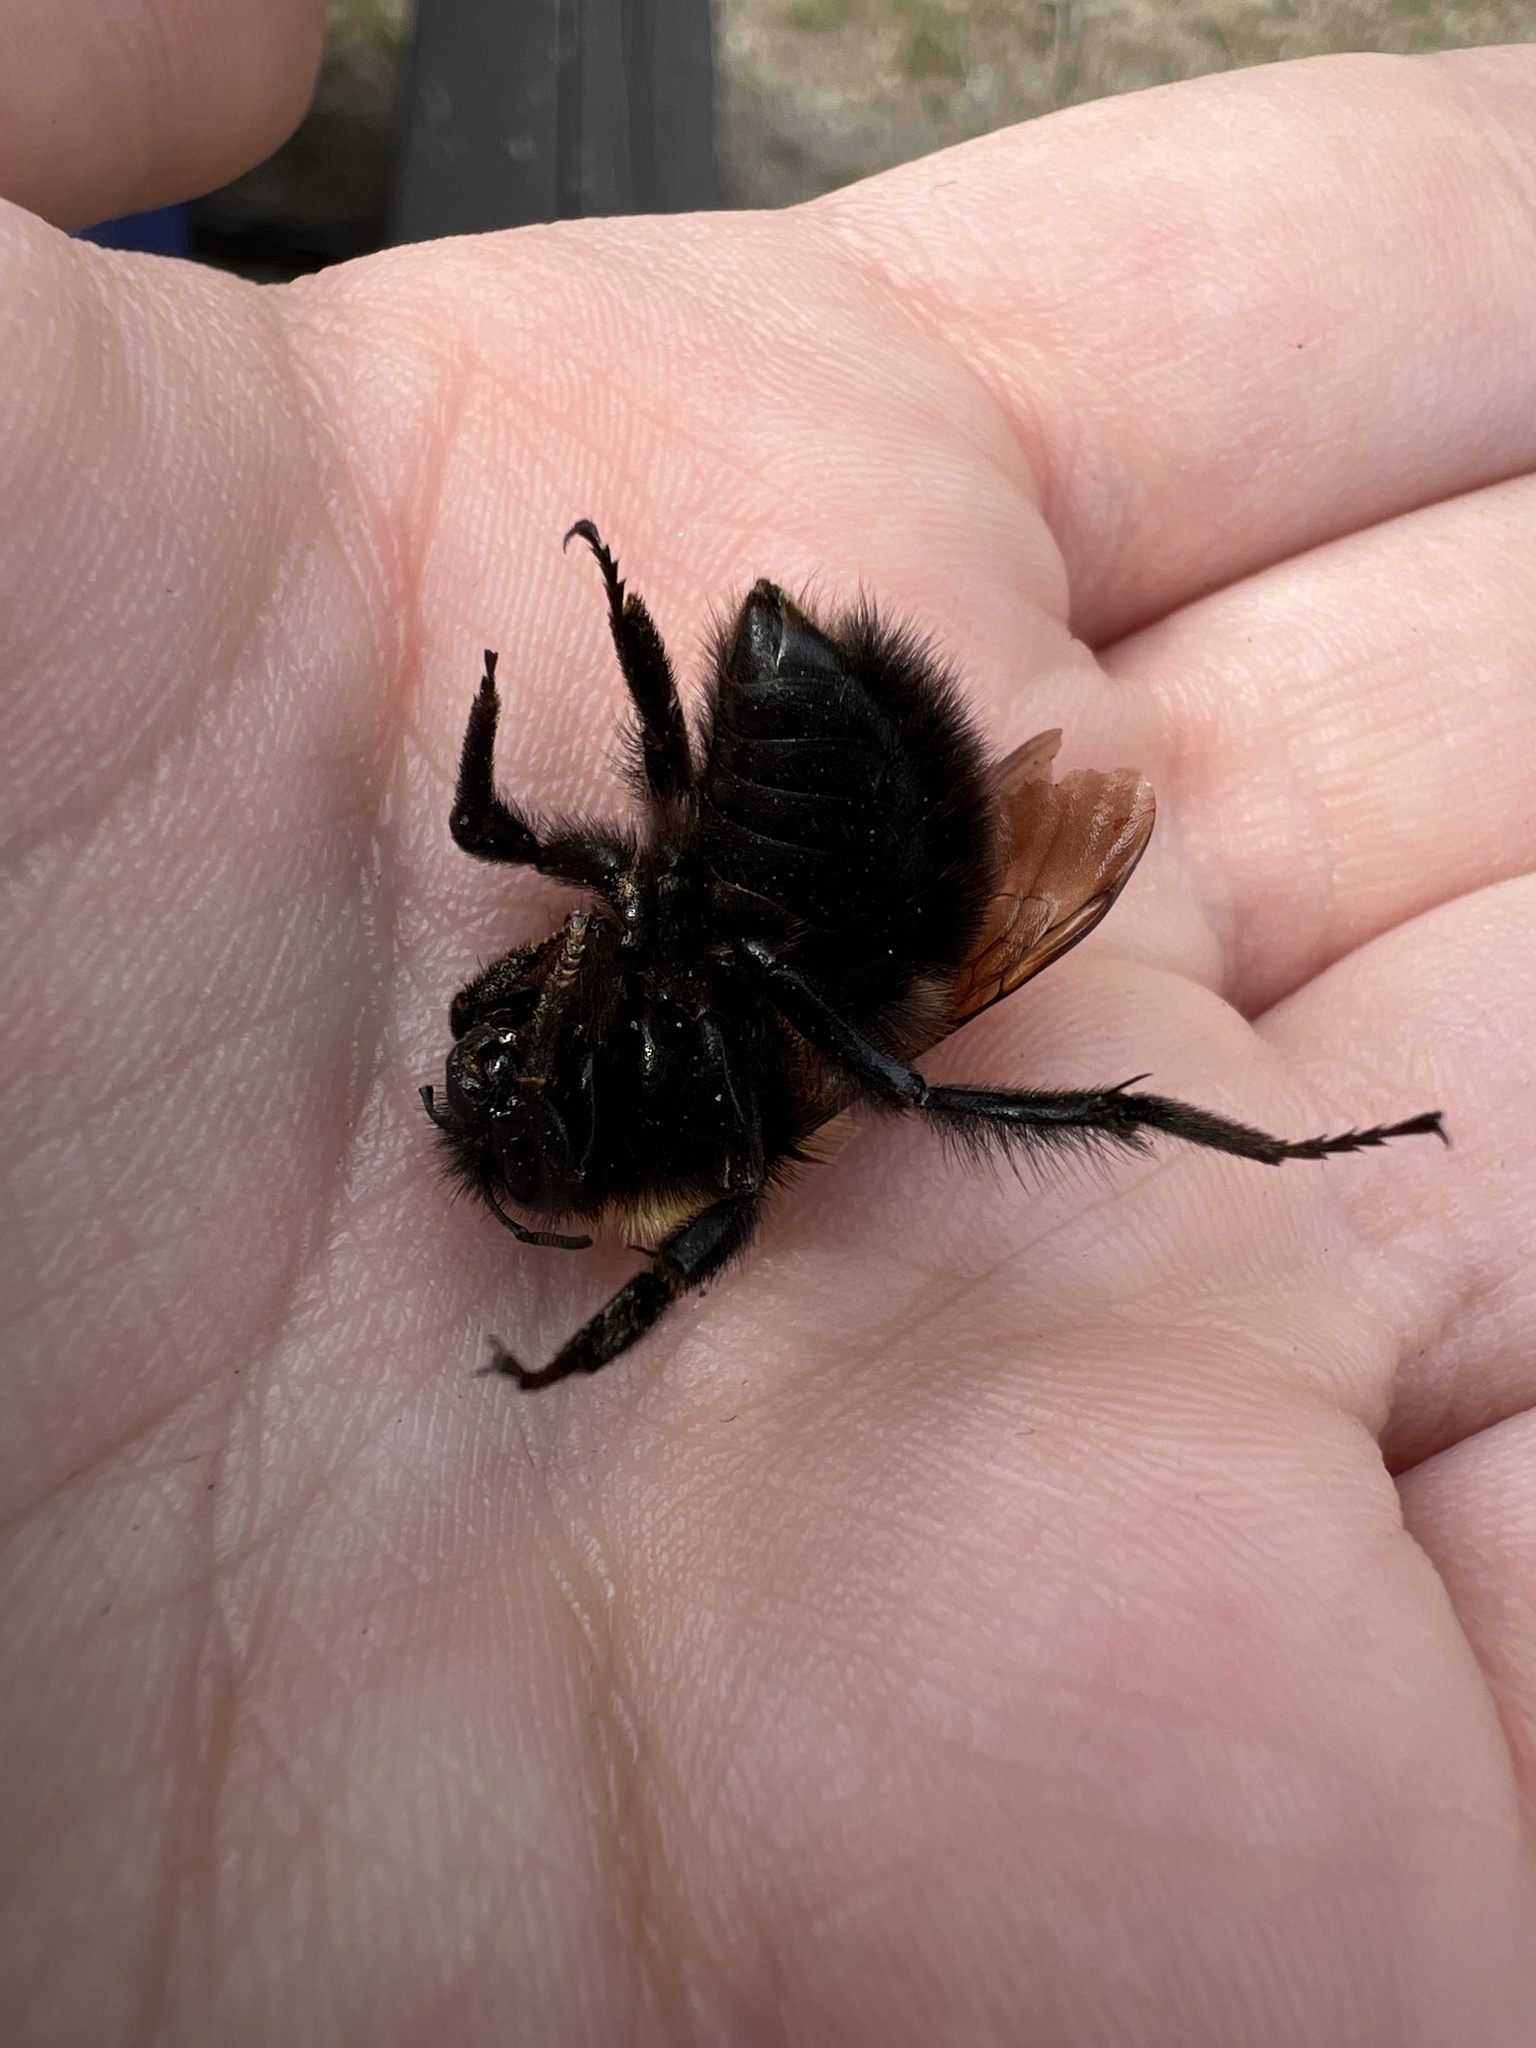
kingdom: Animalia
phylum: Arthropoda
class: Insecta
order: Hymenoptera
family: Apidae
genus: Bombus
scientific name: Bombus perplexus
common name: Confusing bumble bee
